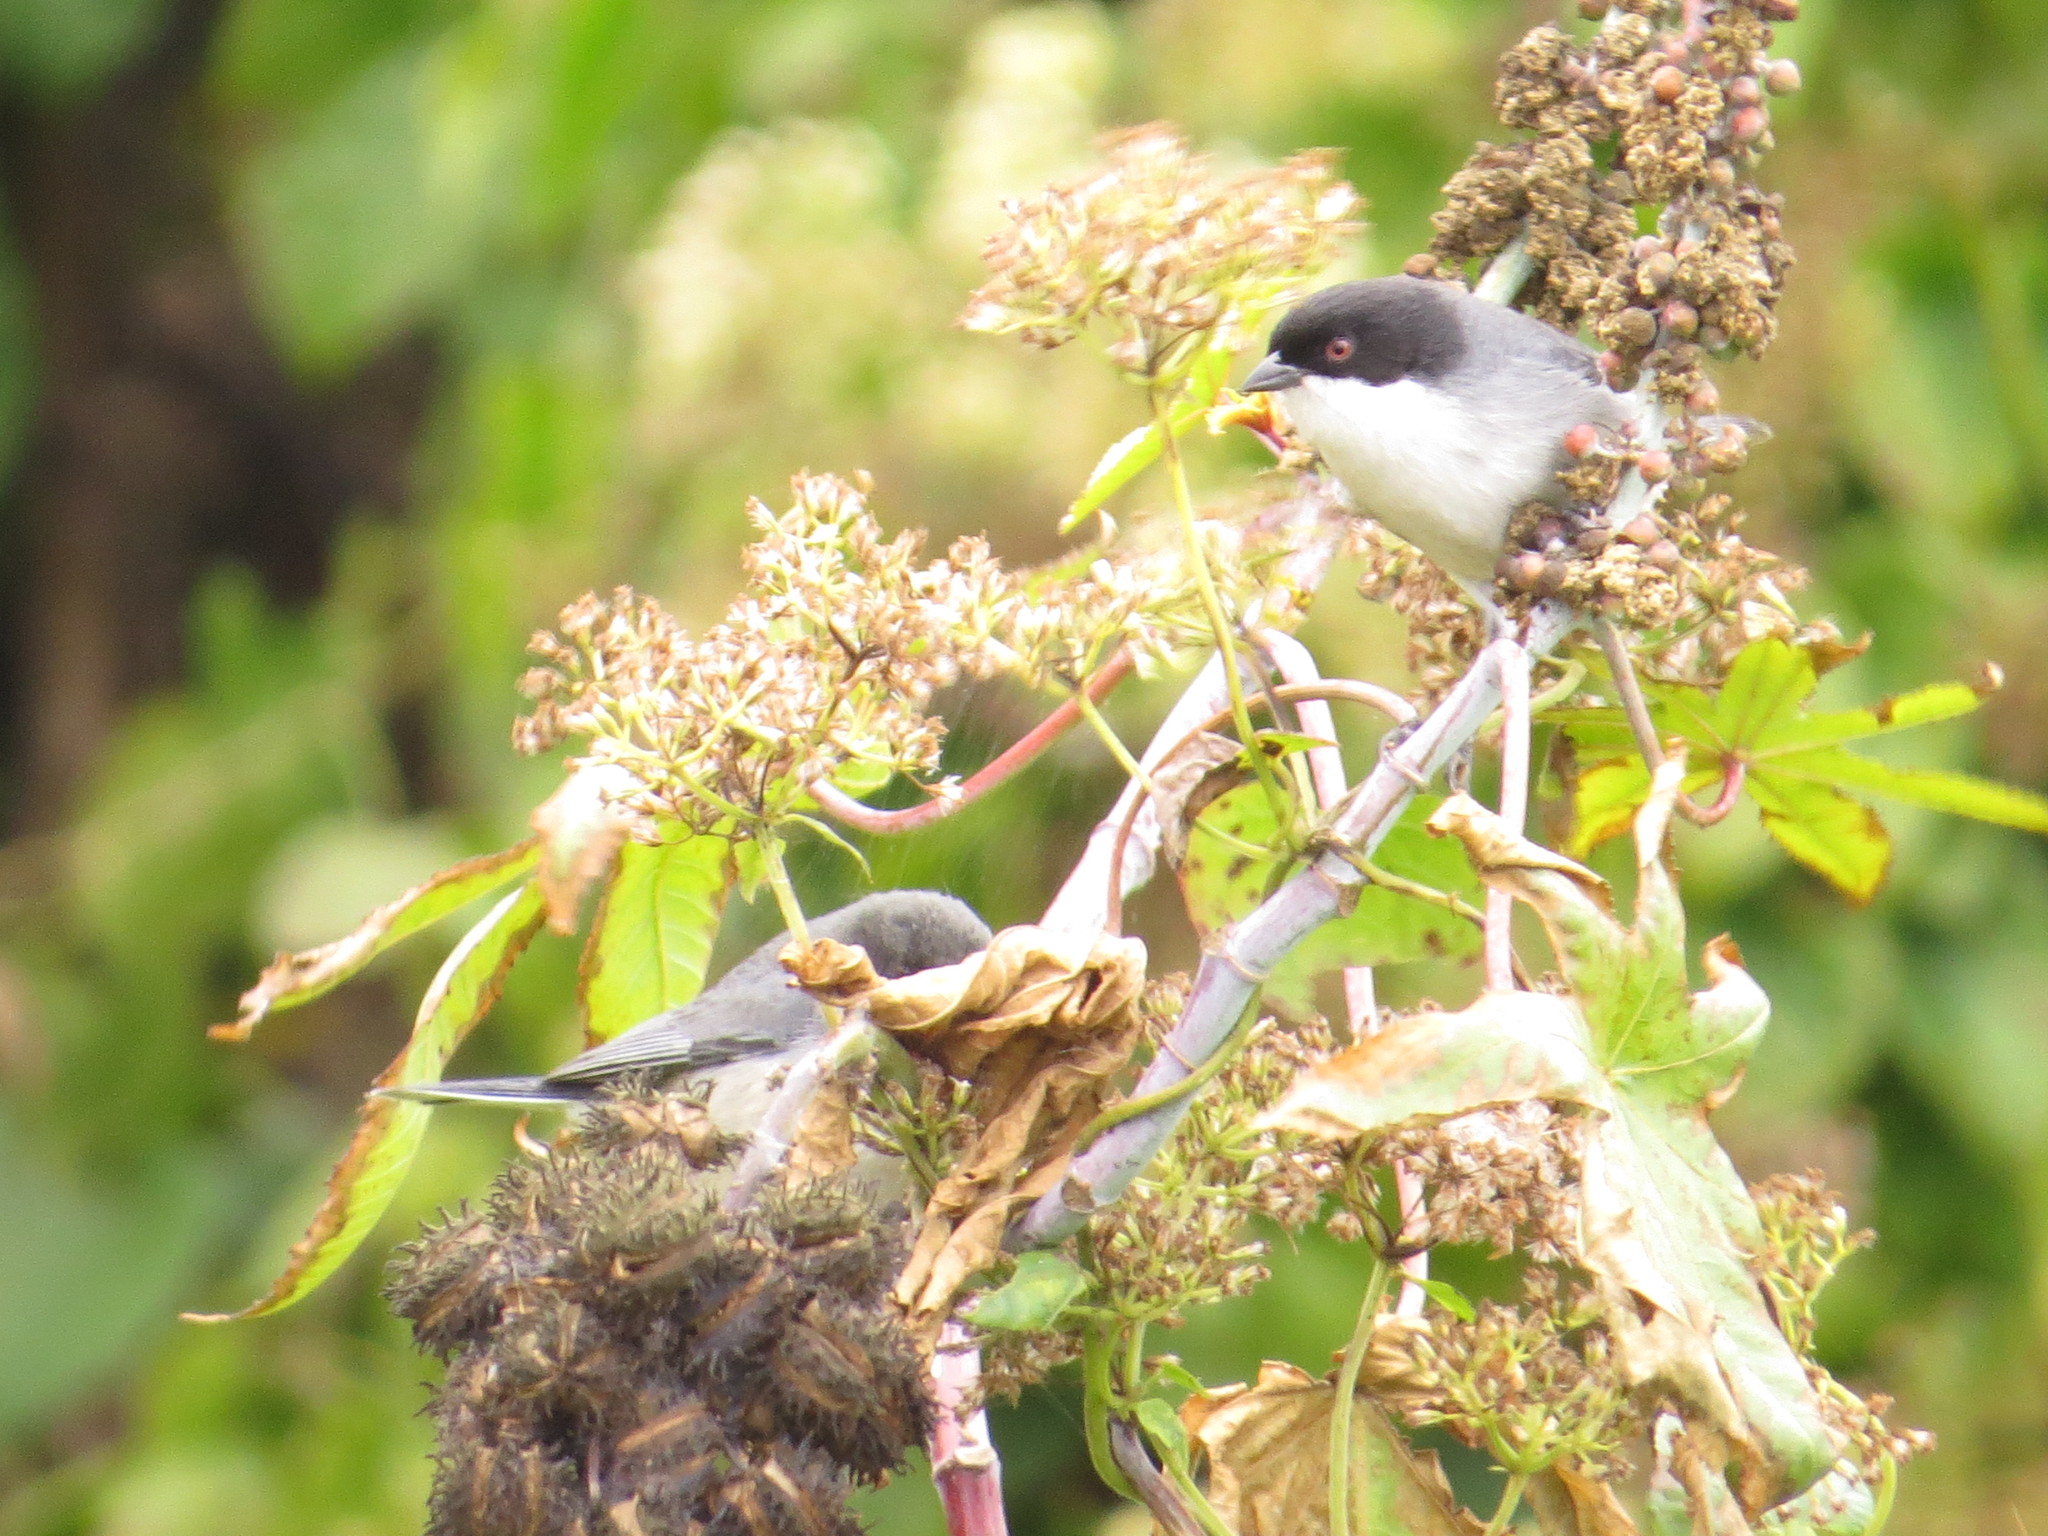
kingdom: Animalia
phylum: Chordata
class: Aves
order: Passeriformes
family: Thraupidae
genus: Microspingus
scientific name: Microspingus melanoleucus
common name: Black-capped warbling-finch
